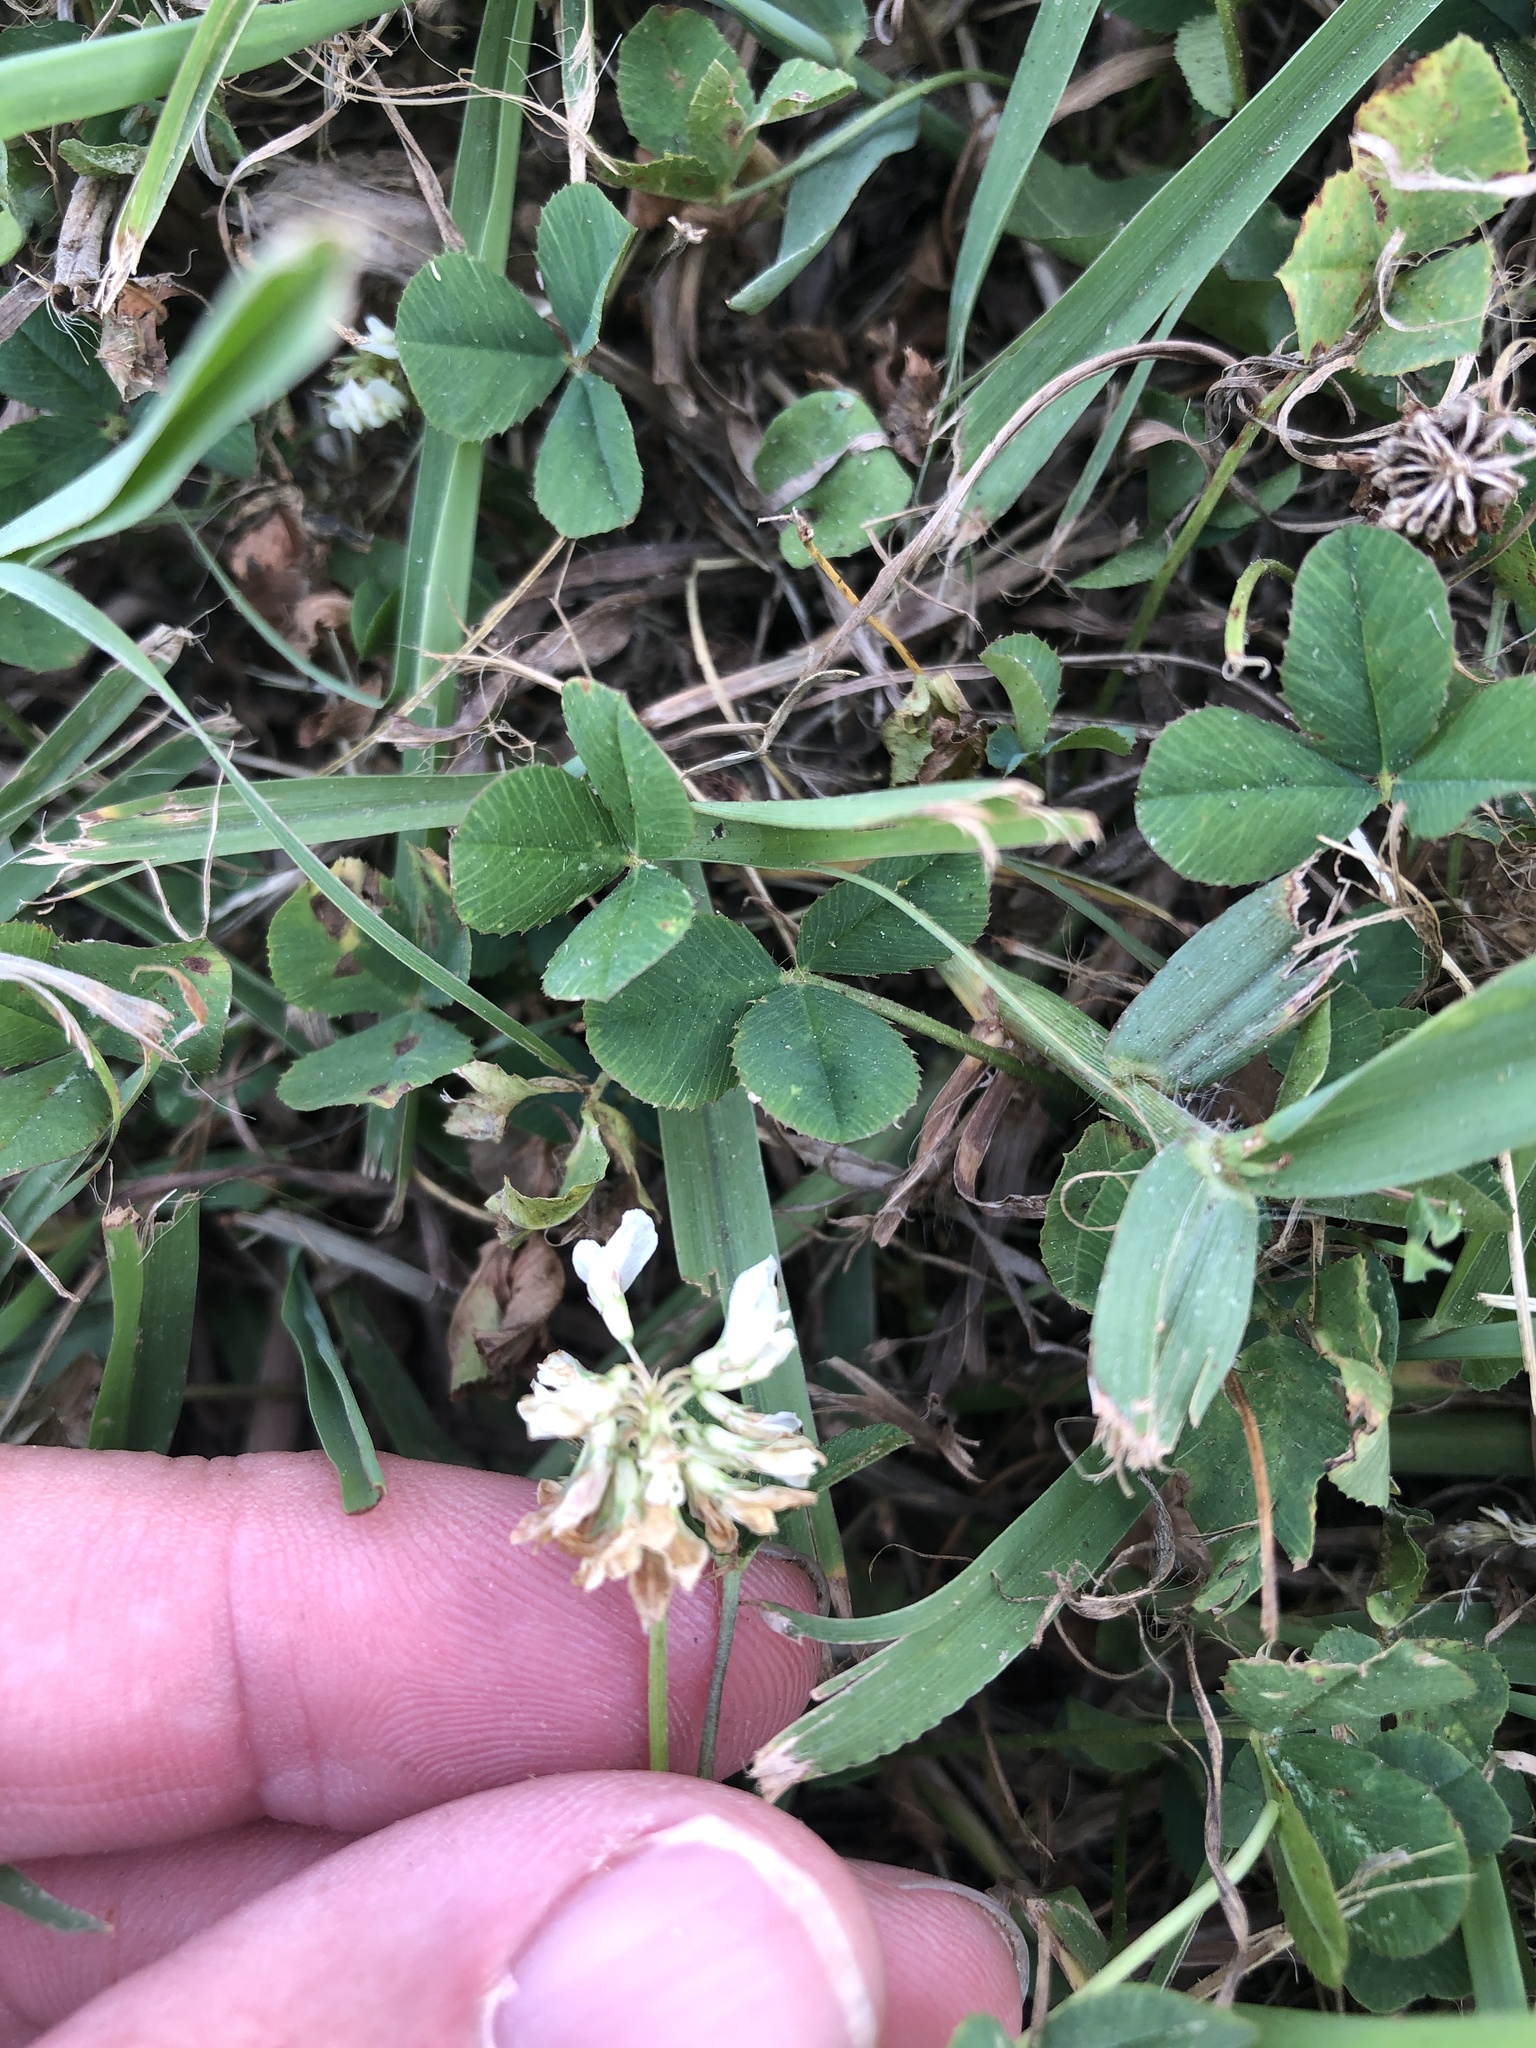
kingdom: Plantae
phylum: Tracheophyta
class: Magnoliopsida
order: Fabales
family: Fabaceae
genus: Trifolium
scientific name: Trifolium repens
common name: White clover
